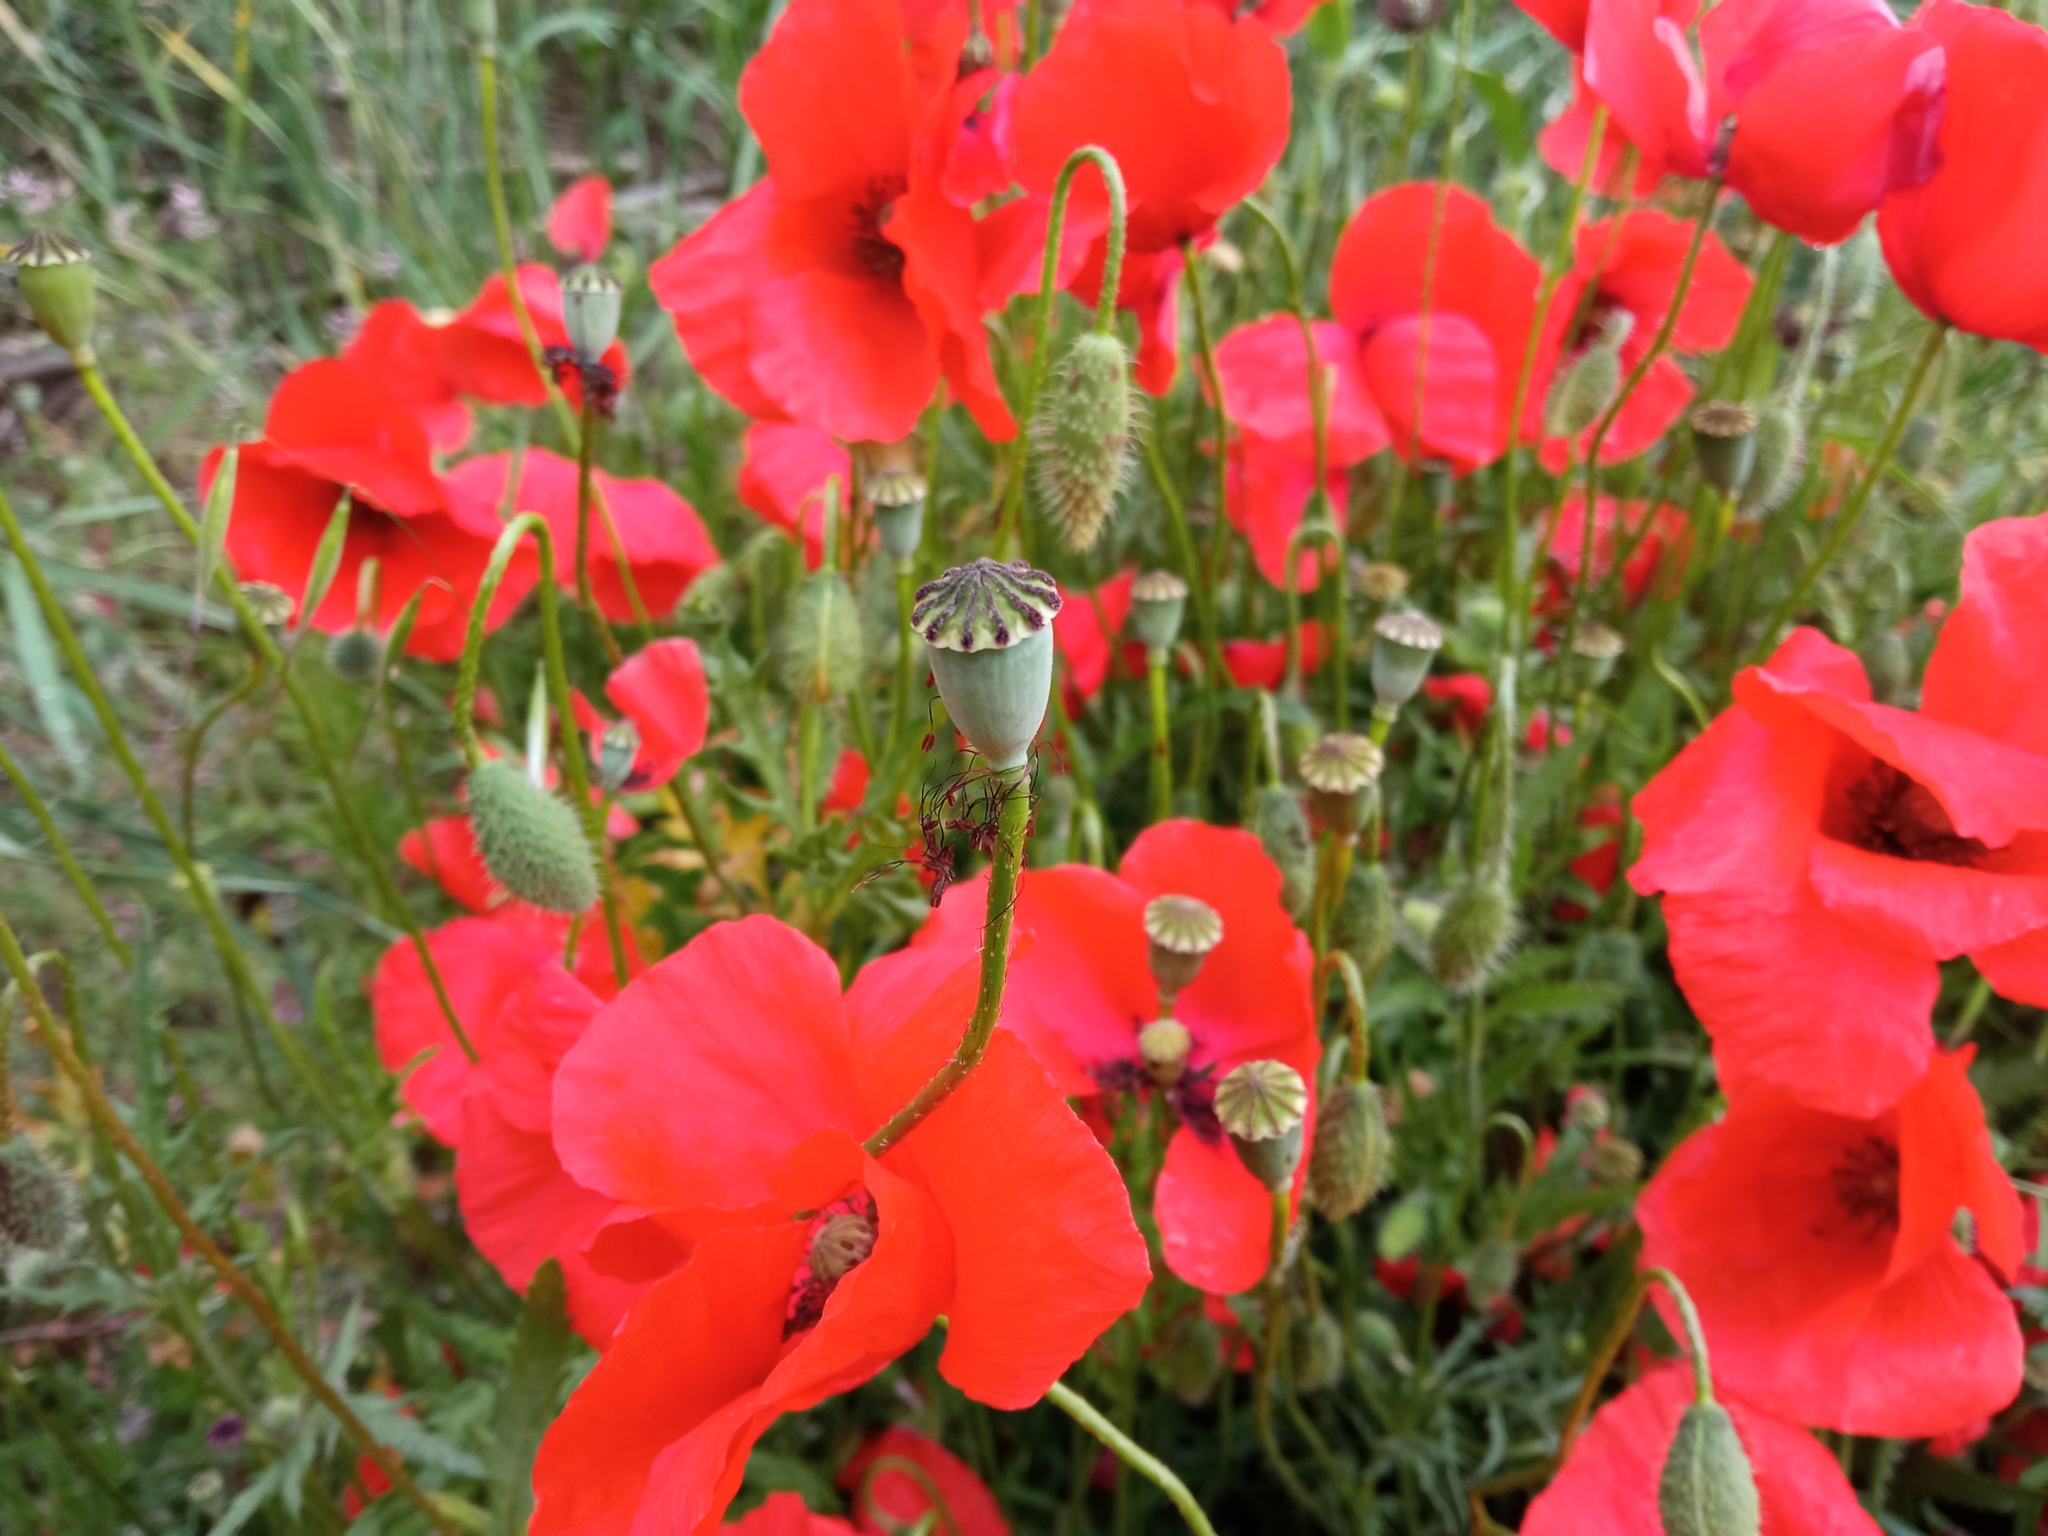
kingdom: Plantae
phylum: Tracheophyta
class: Magnoliopsida
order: Ranunculales
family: Papaveraceae
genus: Papaver
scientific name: Papaver rhoeas
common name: Corn poppy
